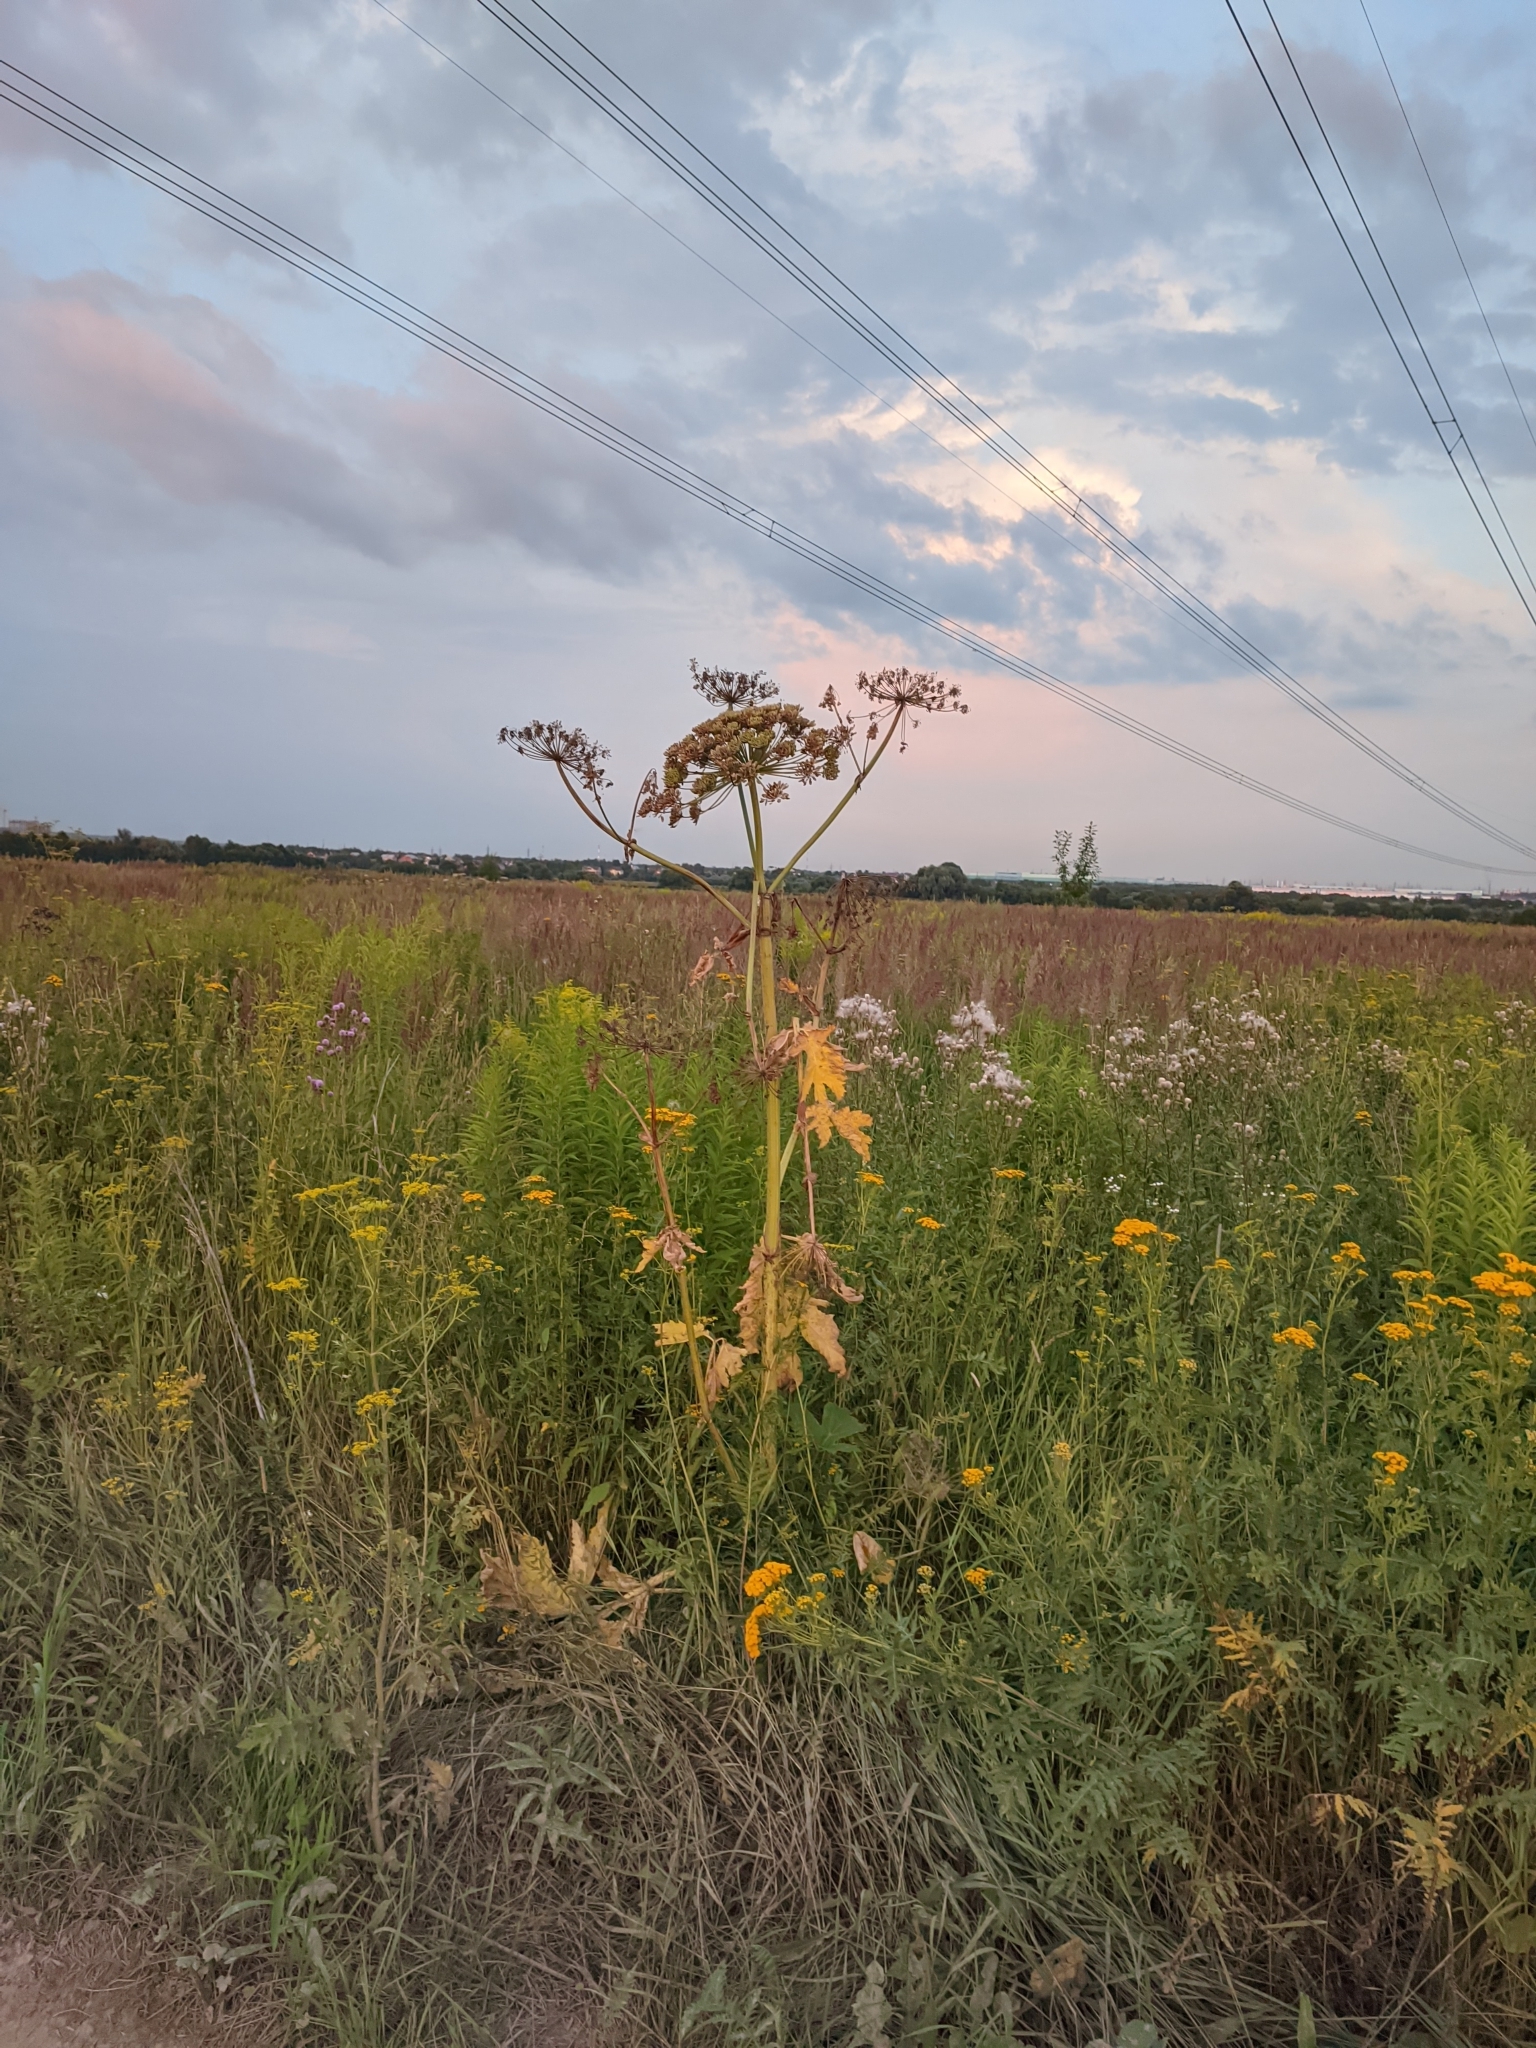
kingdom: Plantae
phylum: Tracheophyta
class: Magnoliopsida
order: Apiales
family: Apiaceae
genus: Heracleum
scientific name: Heracleum sosnowskyi
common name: Sosnowsky's hogweed
